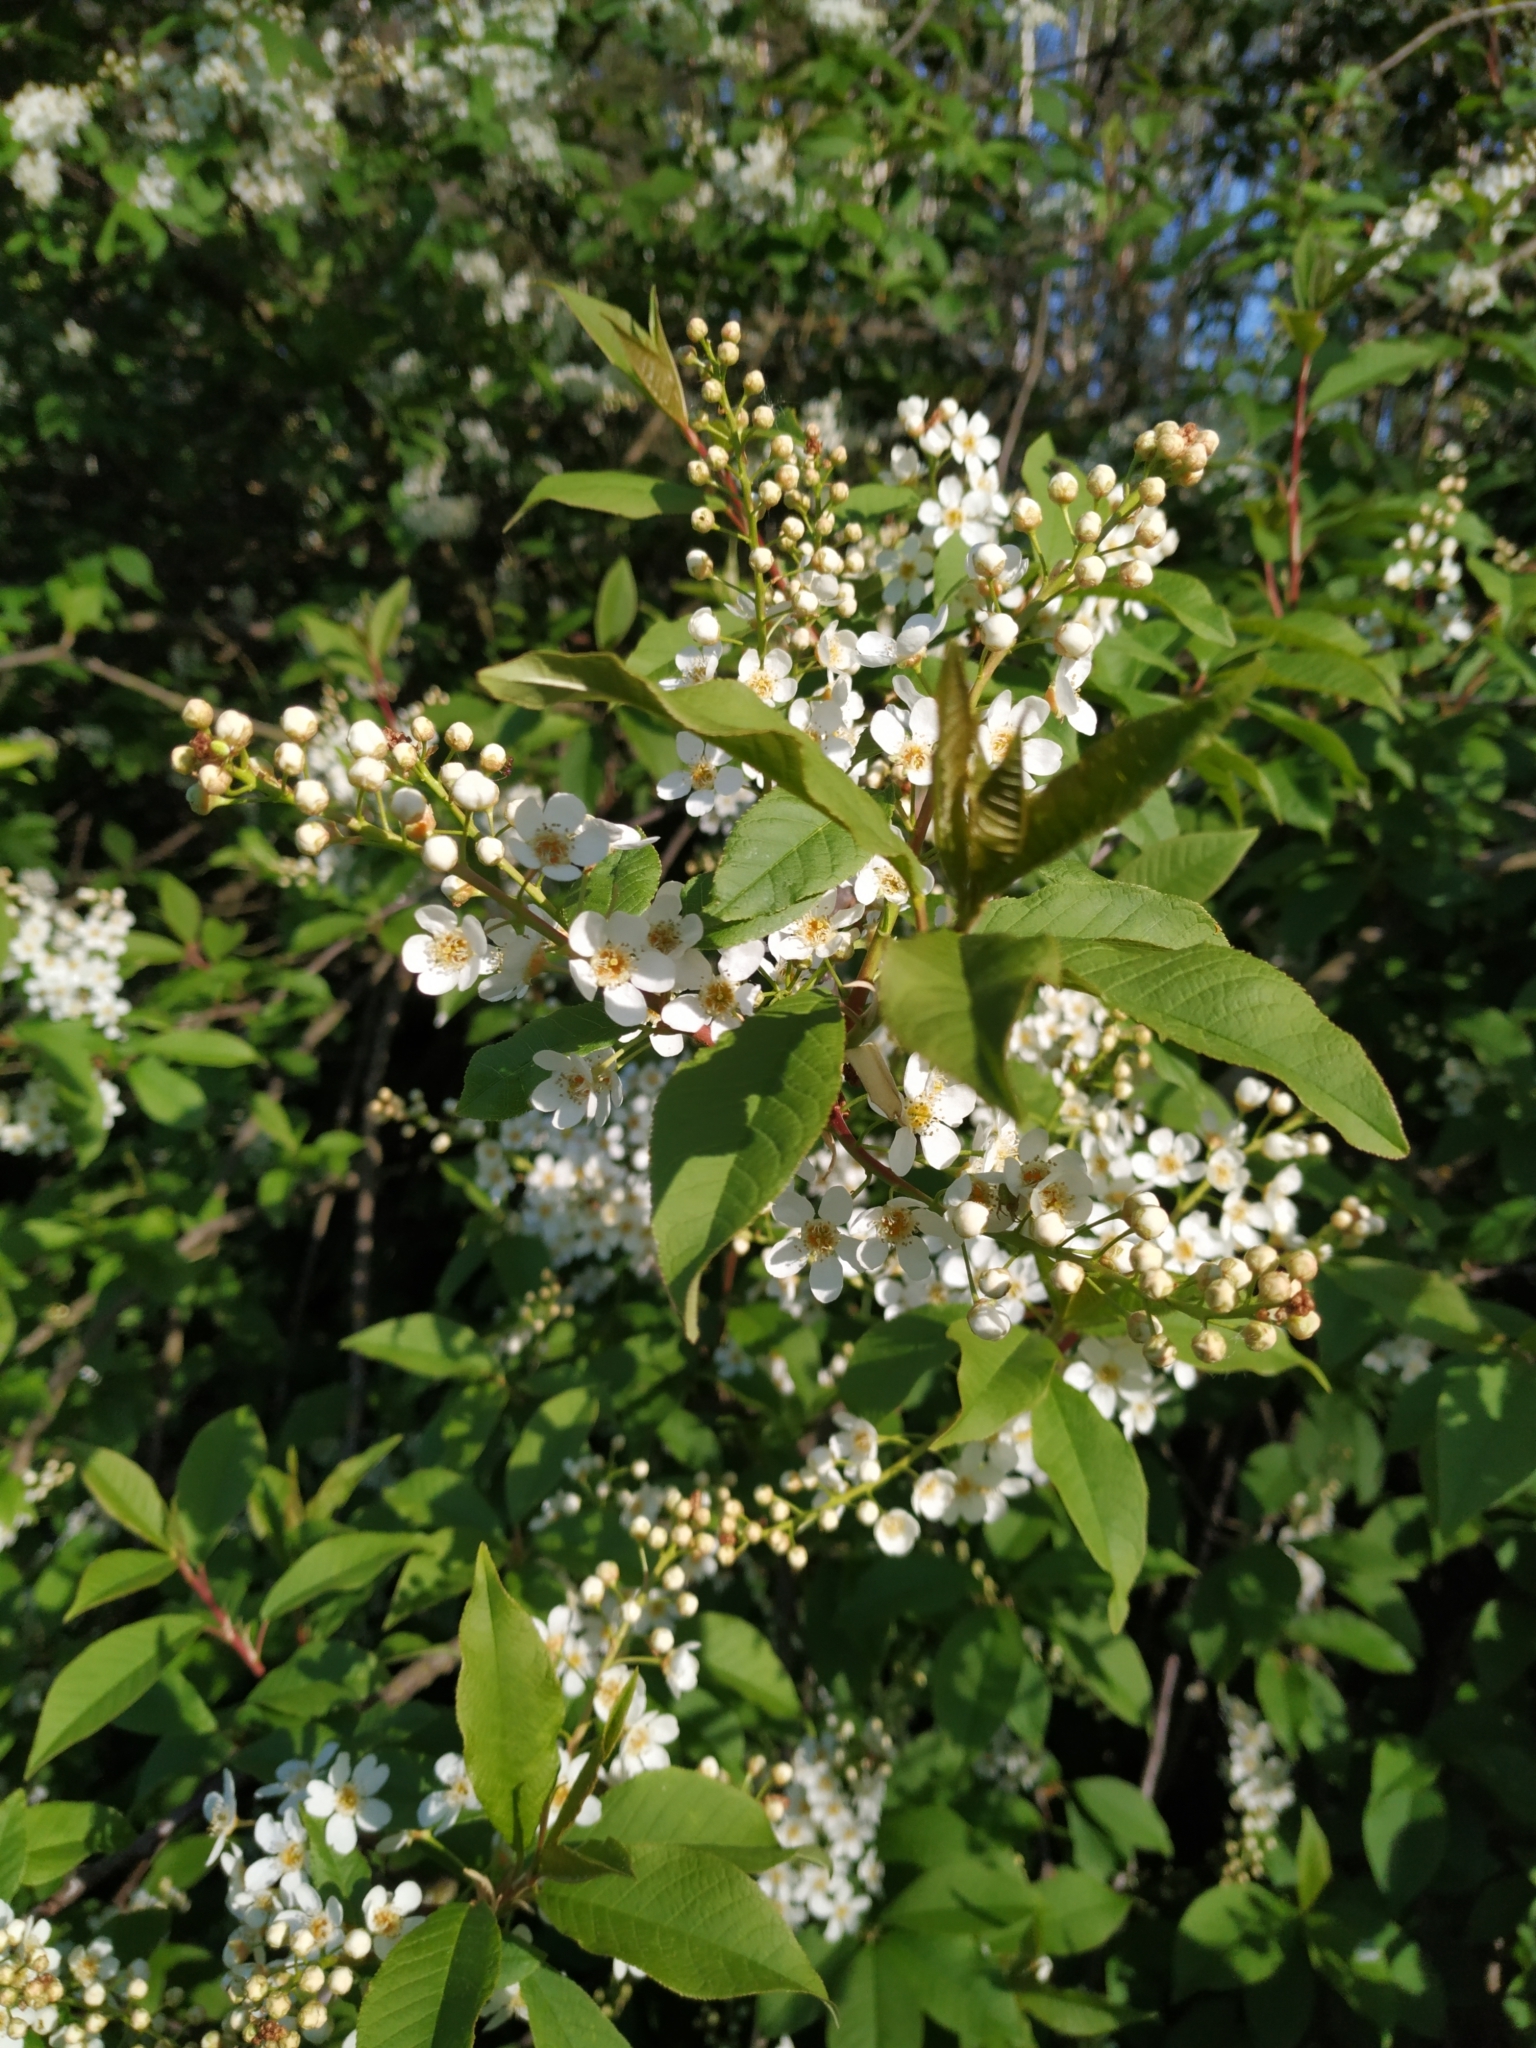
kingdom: Plantae
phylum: Tracheophyta
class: Magnoliopsida
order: Rosales
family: Rosaceae
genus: Prunus
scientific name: Prunus padus
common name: Bird cherry
